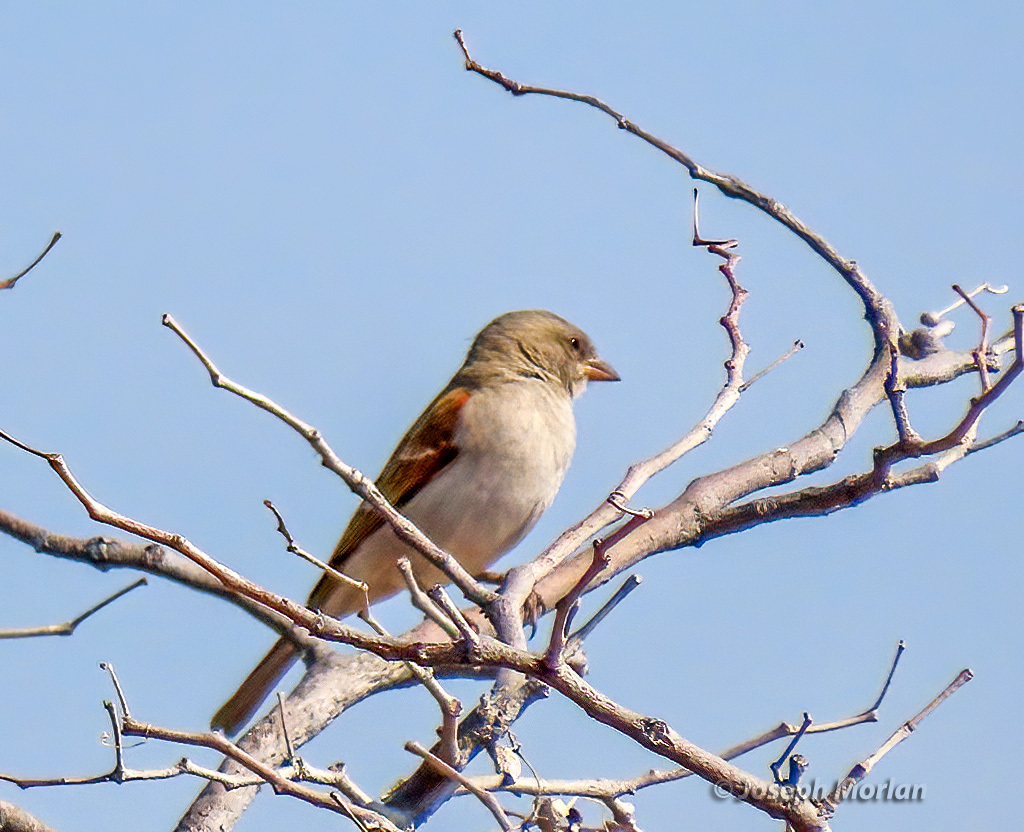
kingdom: Animalia
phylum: Chordata
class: Aves
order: Passeriformes
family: Passeridae
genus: Passer
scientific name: Passer diffusus
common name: Southern grey-headed sparrow
